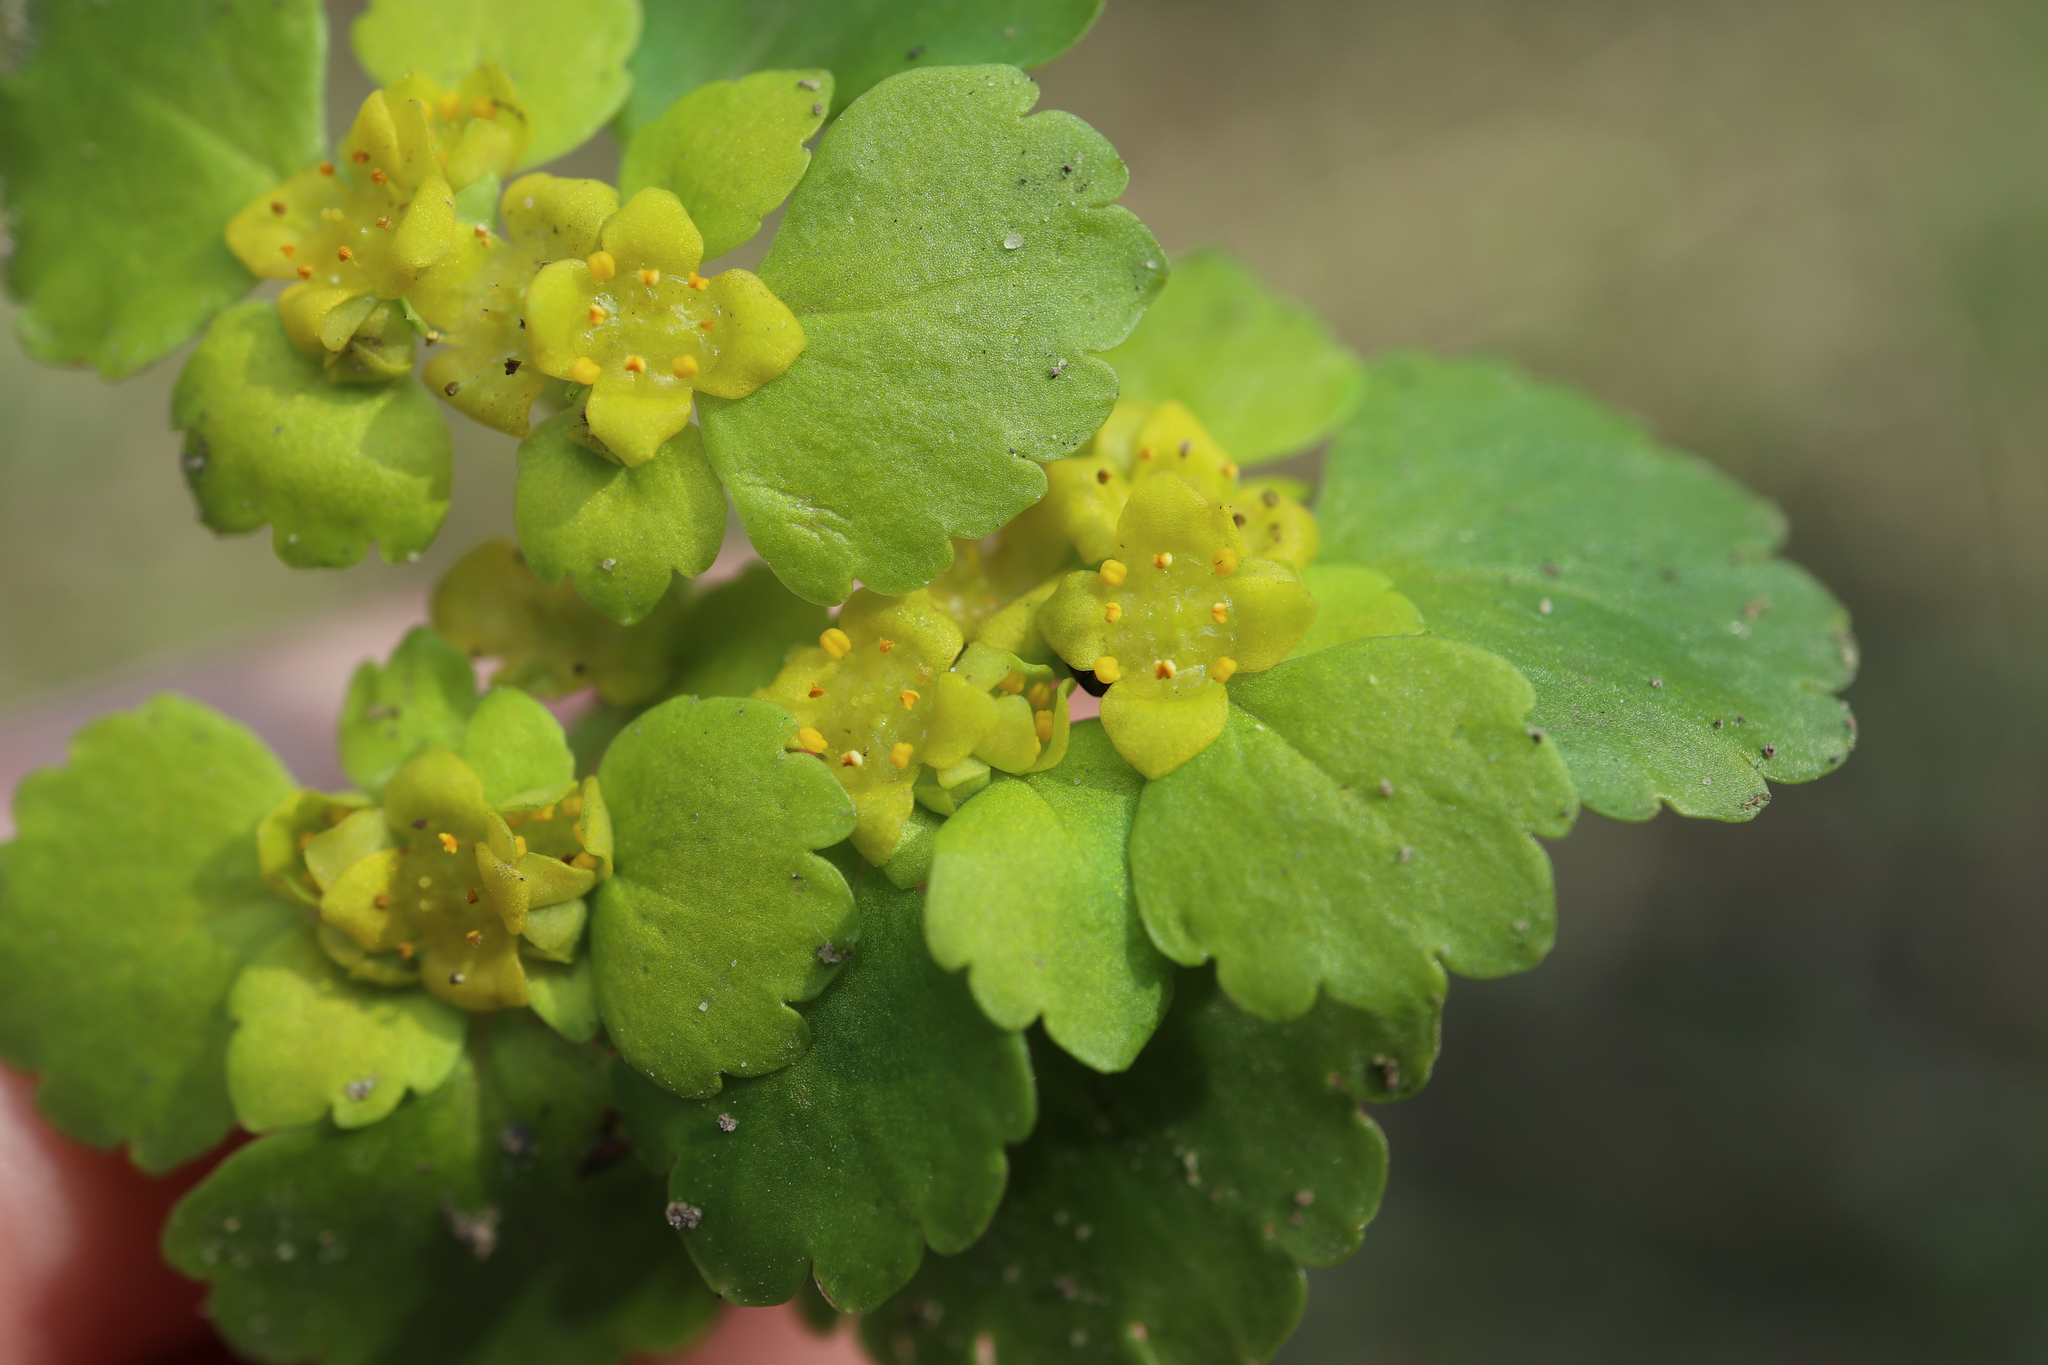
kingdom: Plantae
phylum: Tracheophyta
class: Magnoliopsida
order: Saxifragales
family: Saxifragaceae
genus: Chrysosplenium
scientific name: Chrysosplenium alternifolium
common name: Alternate-leaved golden-saxifrage
